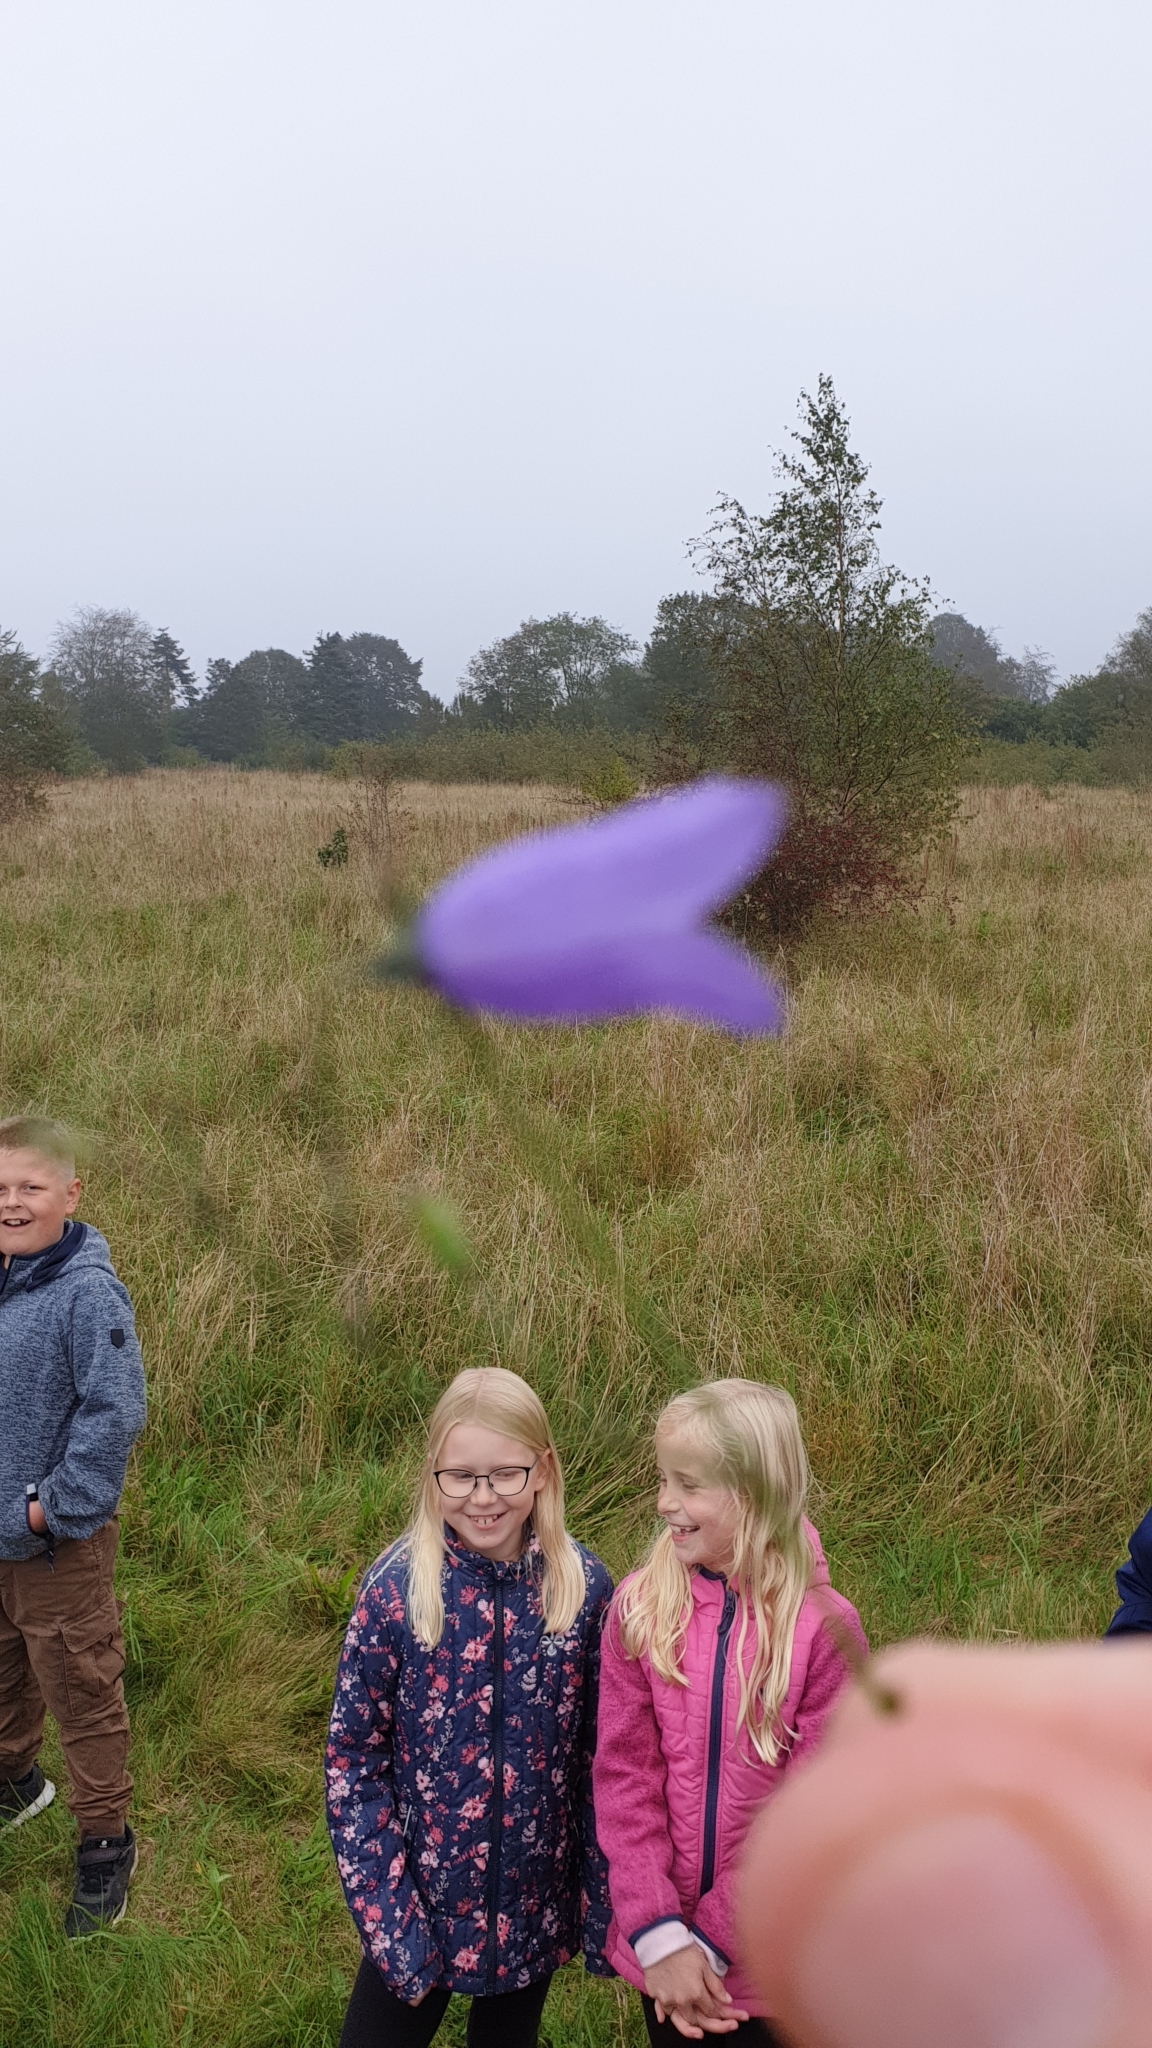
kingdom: Plantae
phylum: Tracheophyta
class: Magnoliopsida
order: Asterales
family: Campanulaceae
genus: Campanula
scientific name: Campanula rotundifolia
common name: Harebell
